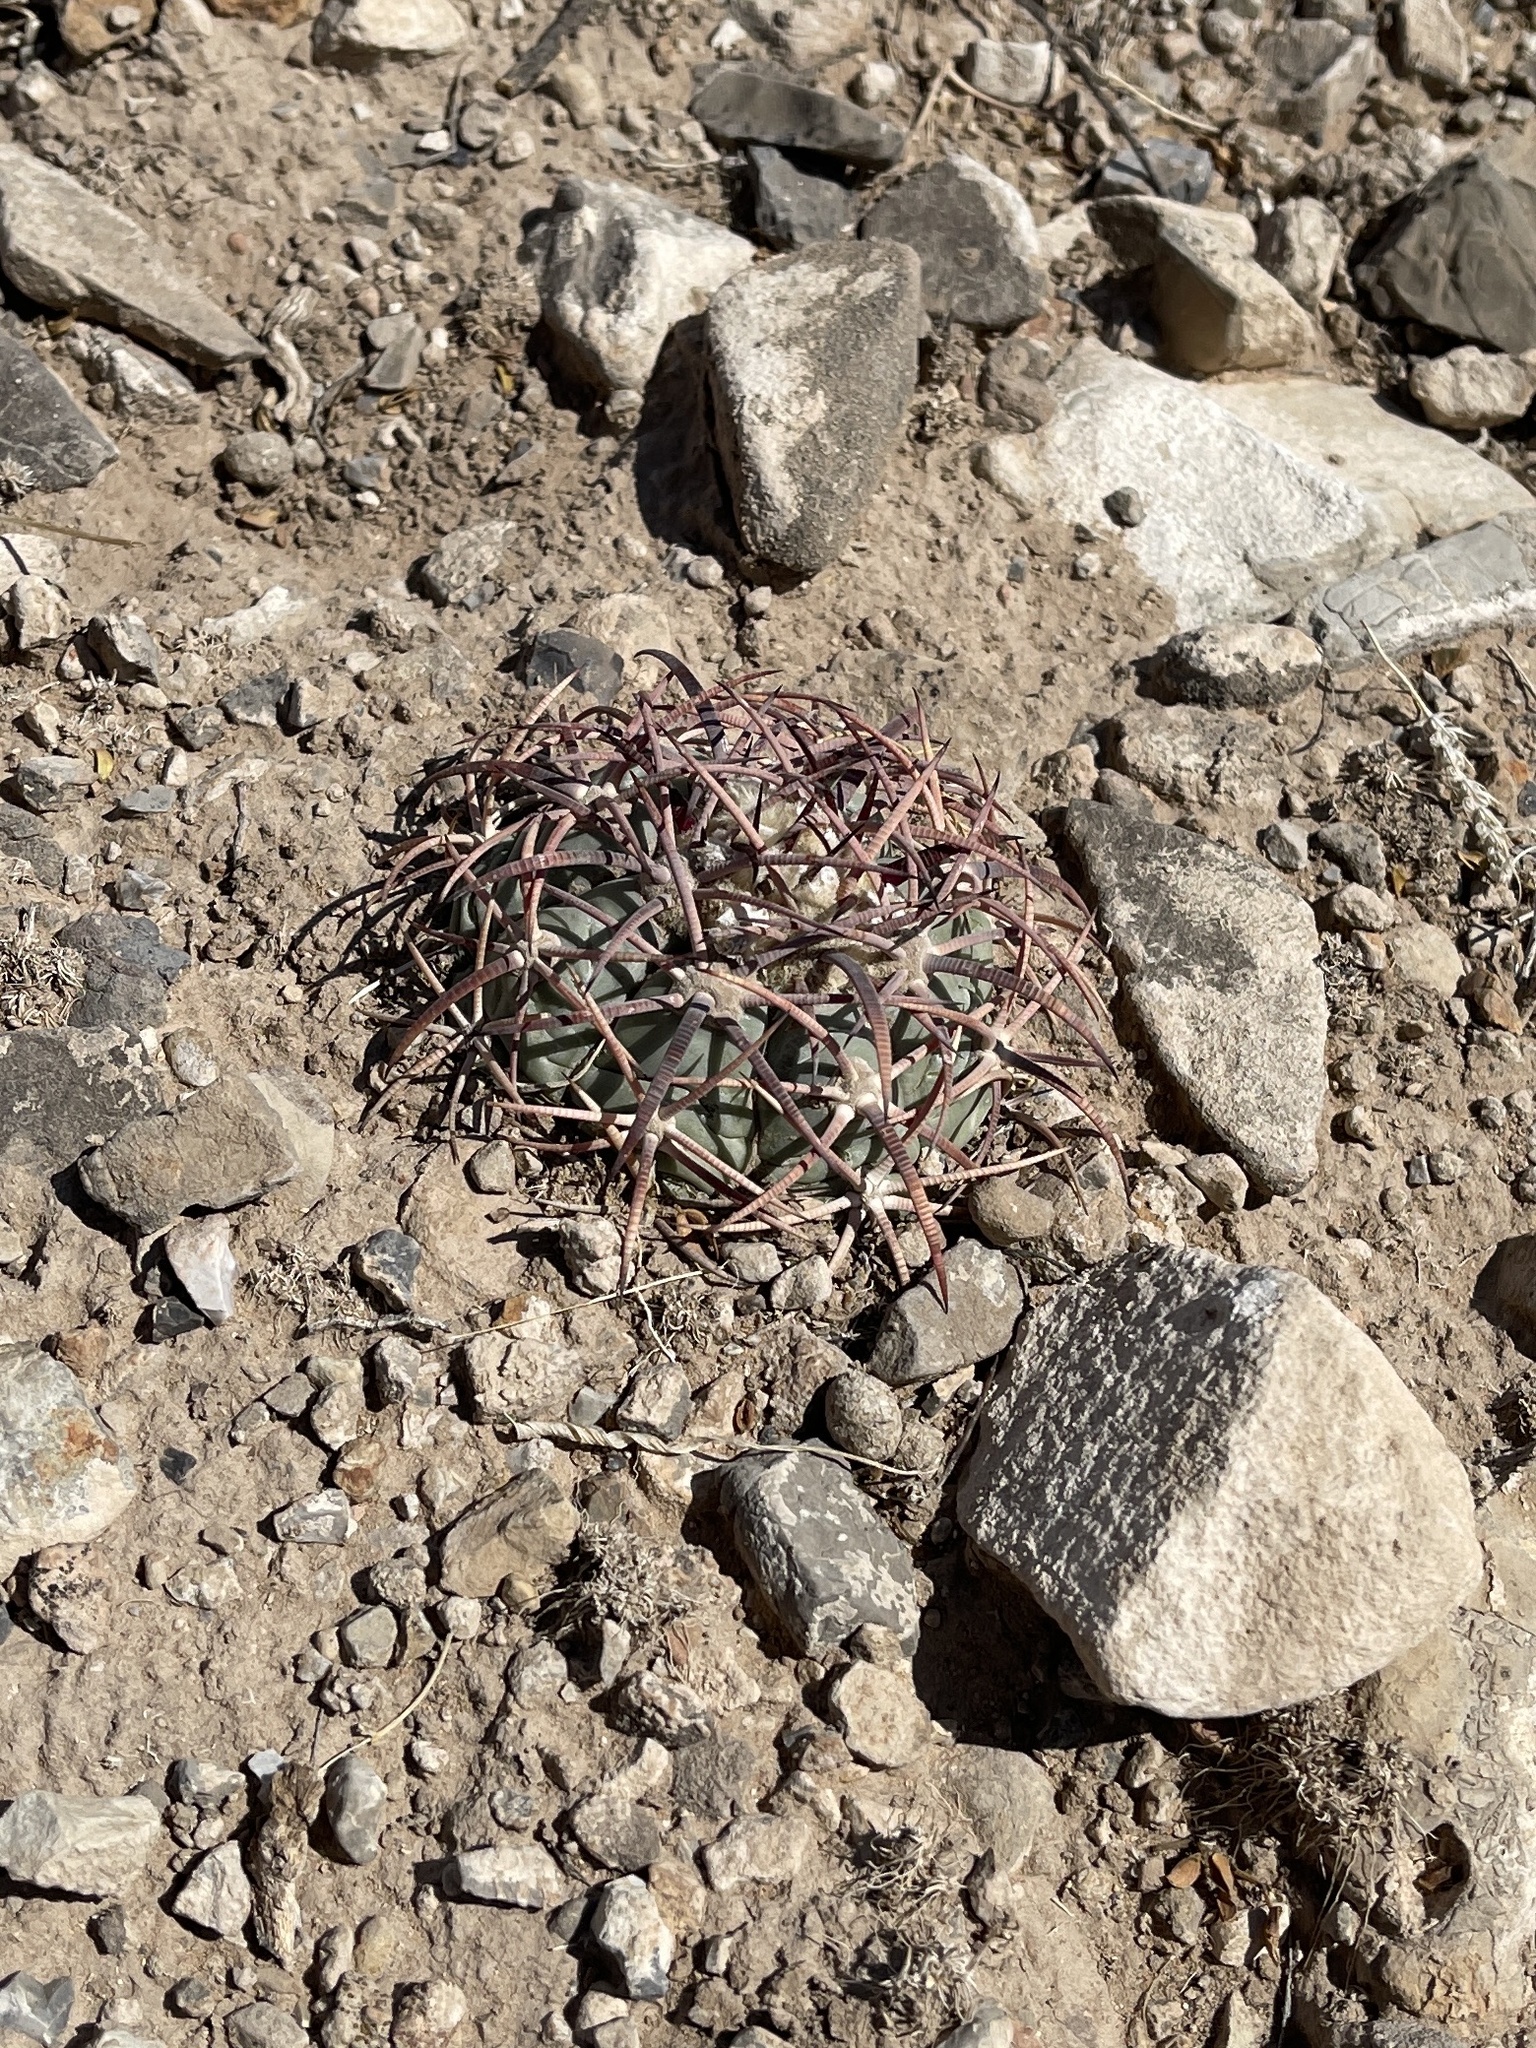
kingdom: Plantae
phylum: Tracheophyta
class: Magnoliopsida
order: Caryophyllales
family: Cactaceae
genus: Echinocactus
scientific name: Echinocactus horizonthalonius
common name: Devilshead
